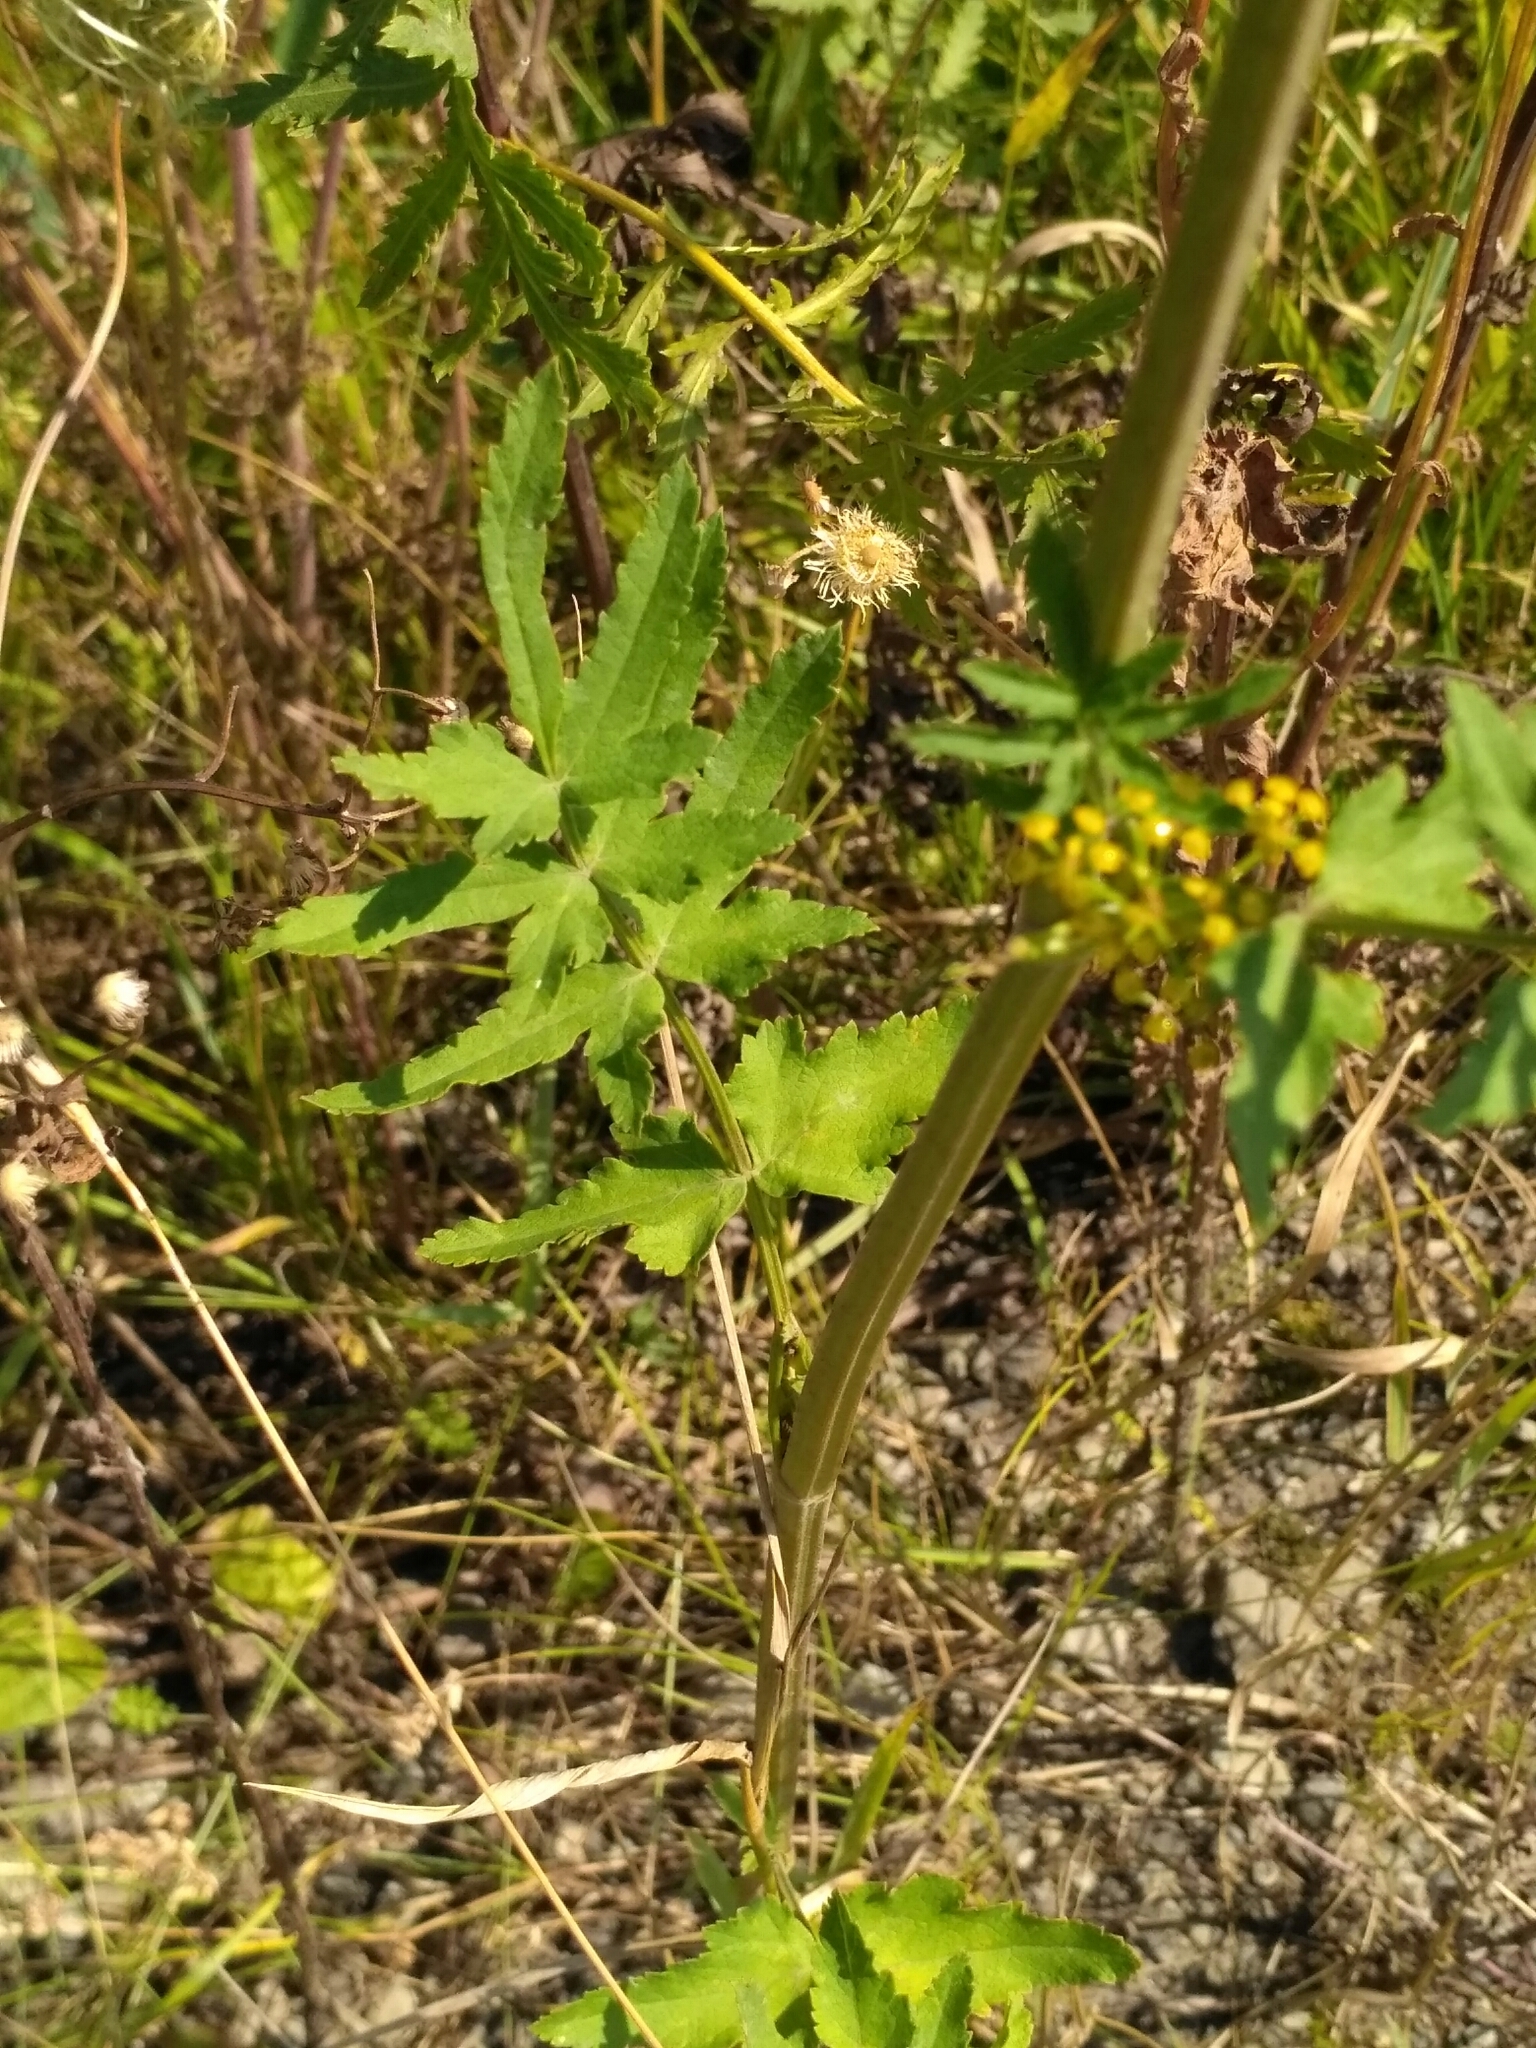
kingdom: Plantae
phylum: Tracheophyta
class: Magnoliopsida
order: Apiales
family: Apiaceae
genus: Pastinaca
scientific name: Pastinaca sativa
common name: Wild parsnip
